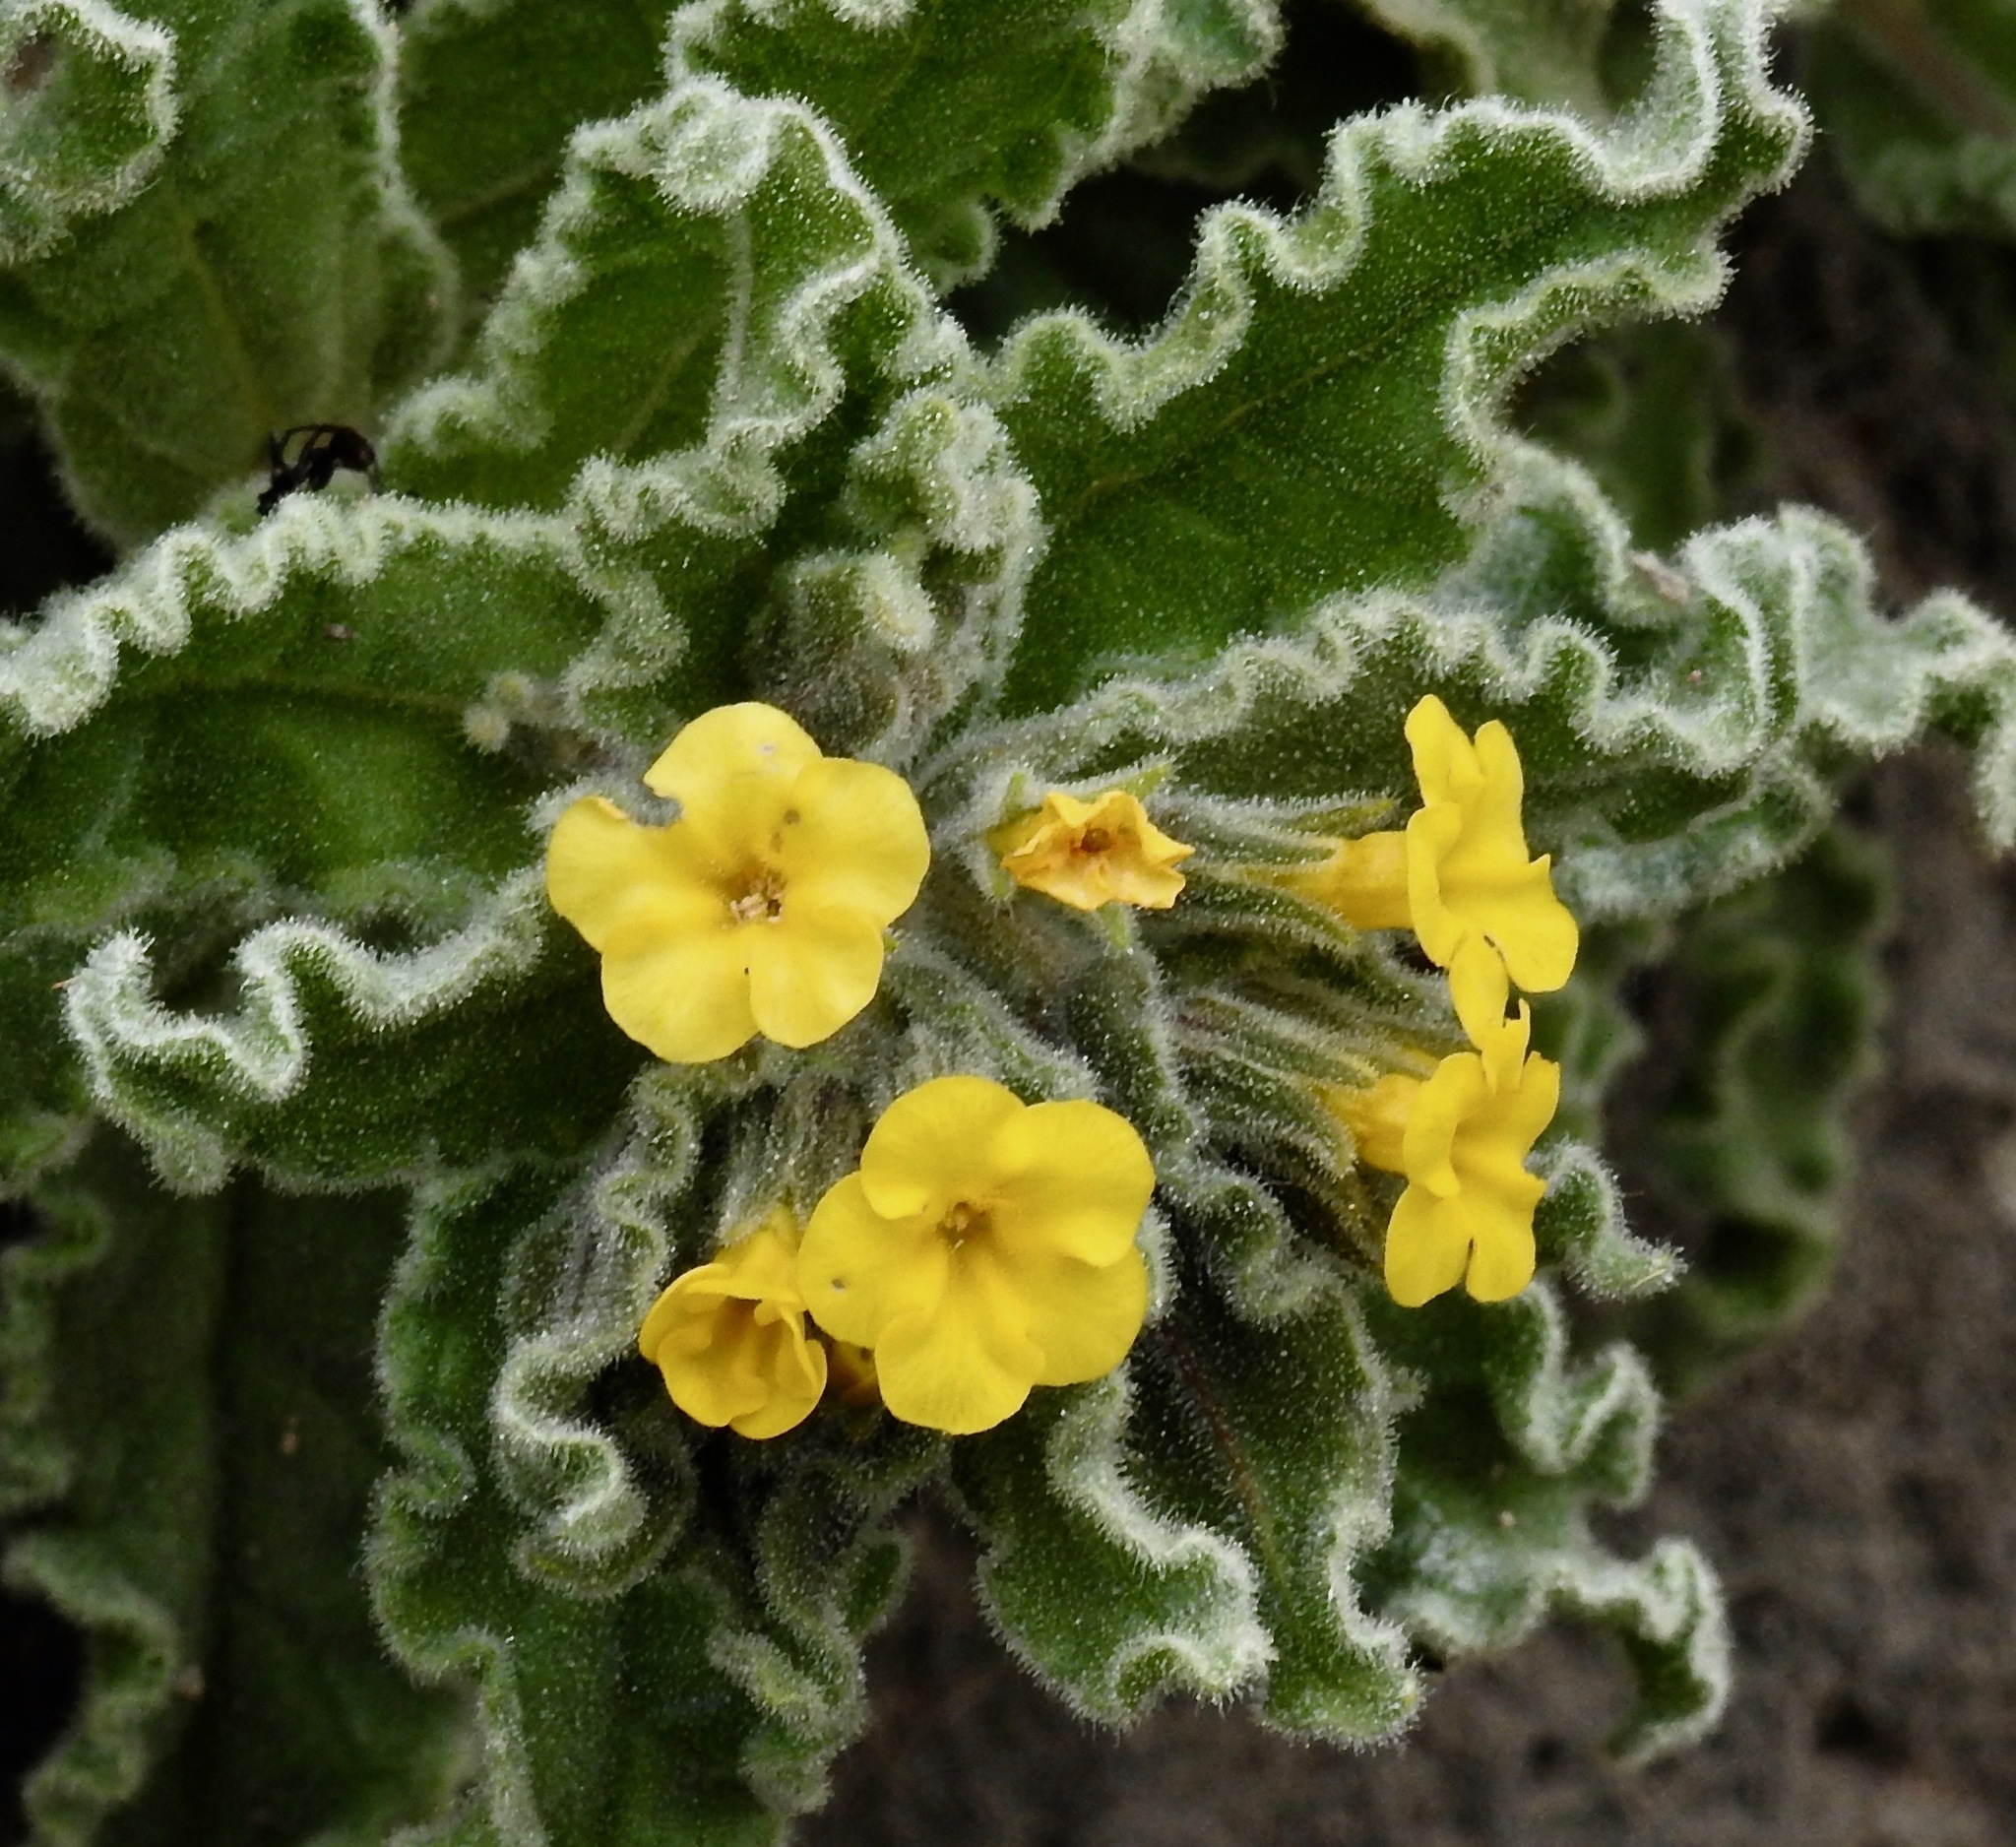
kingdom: Plantae
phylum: Tracheophyta
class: Magnoliopsida
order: Boraginales
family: Boraginaceae
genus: Alkanna
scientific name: Alkanna hellenica
